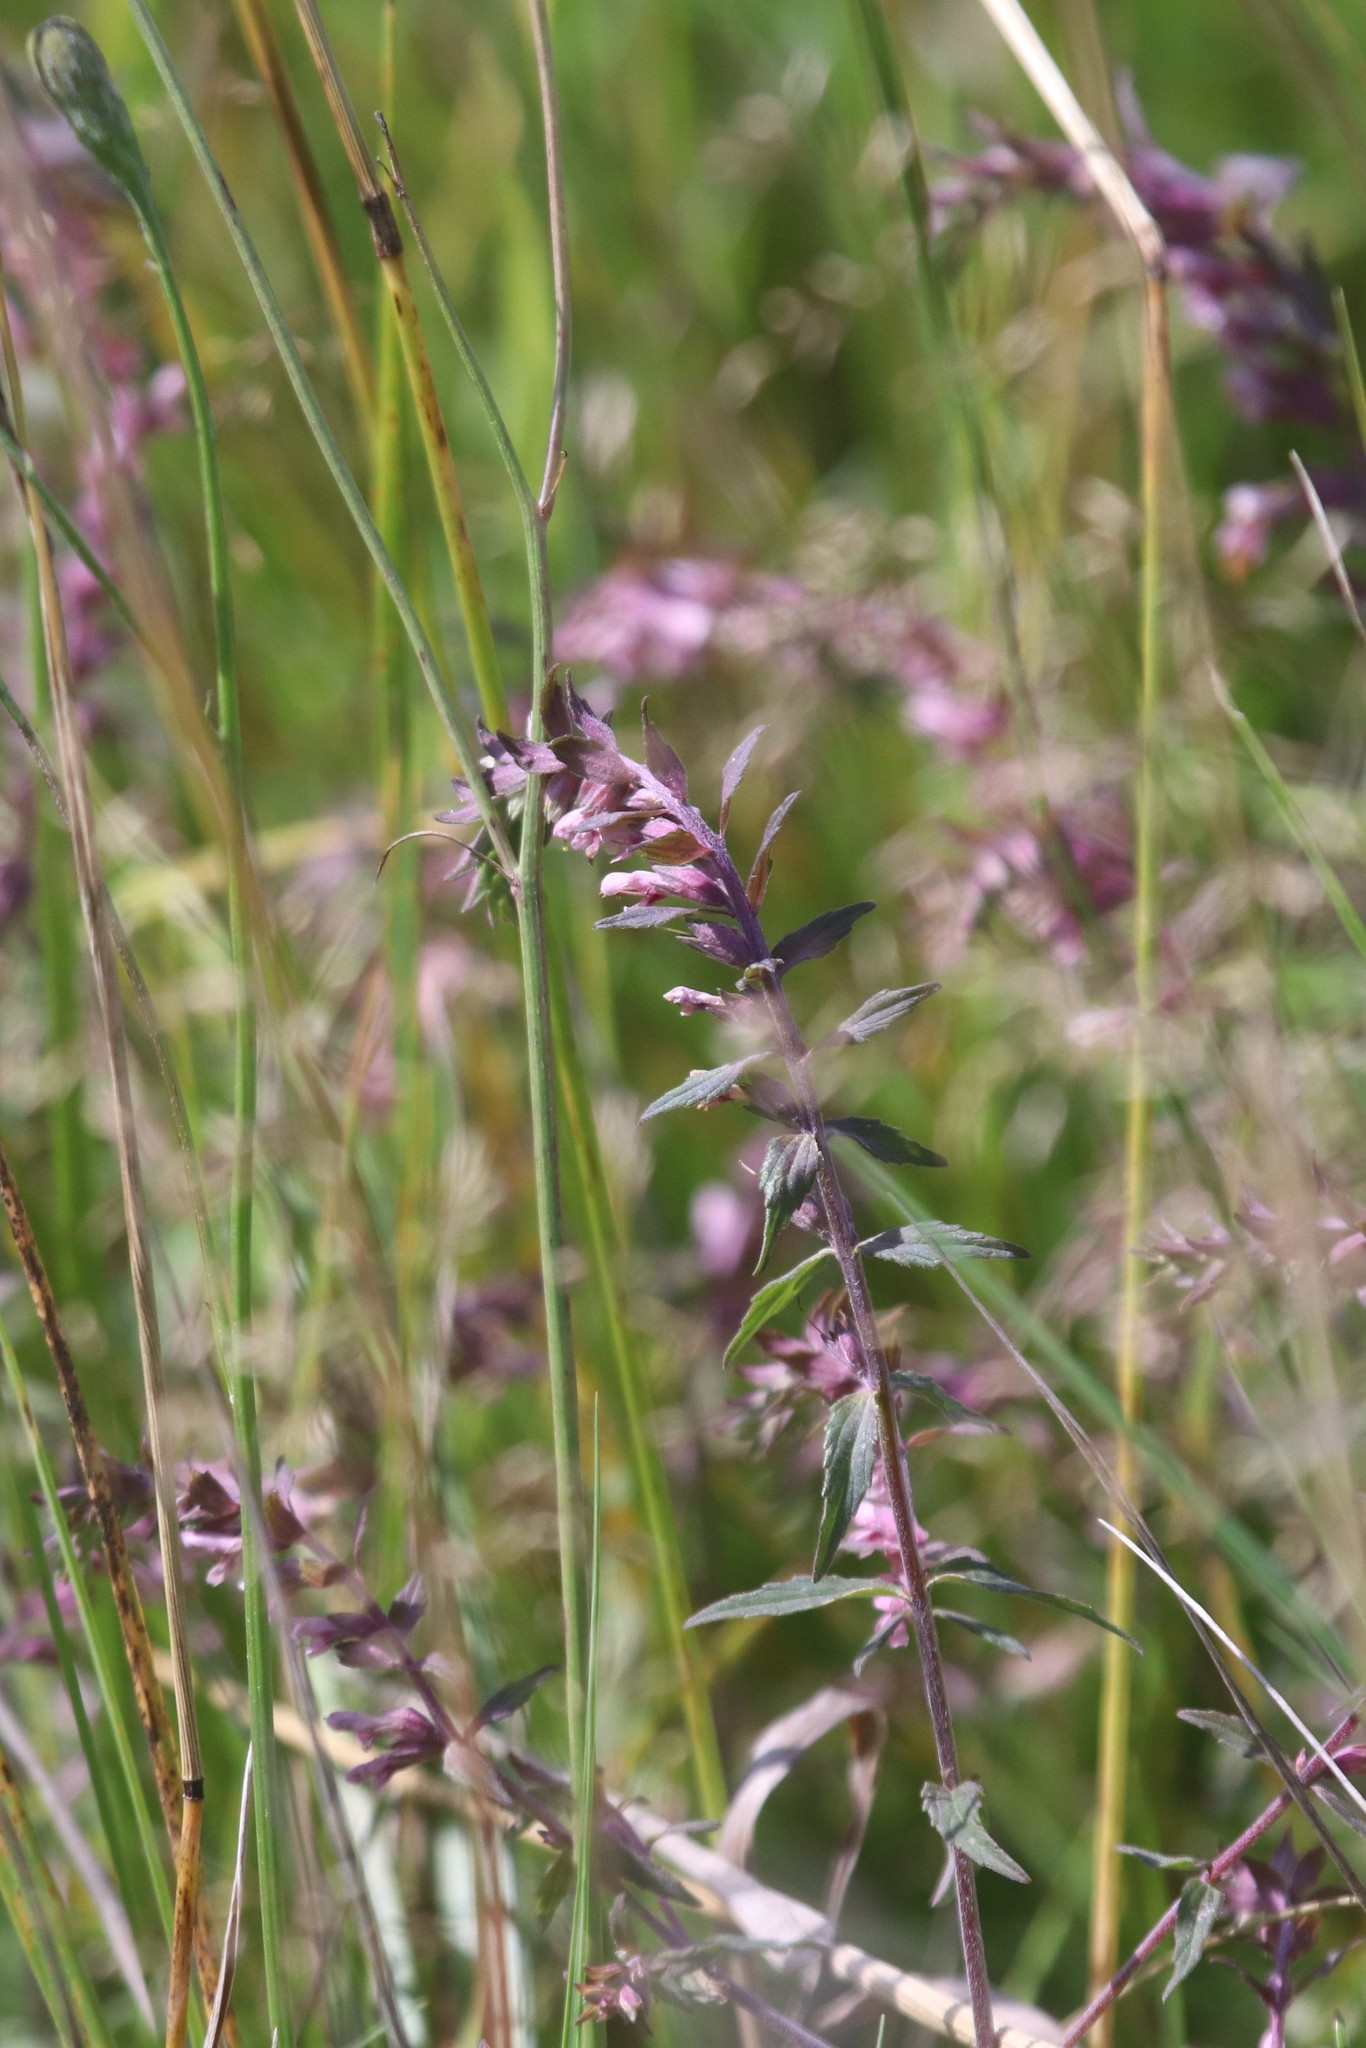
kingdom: Plantae
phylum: Tracheophyta
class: Magnoliopsida
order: Lamiales
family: Orobanchaceae
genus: Odontites
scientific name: Odontites vulgaris
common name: Broomrape
